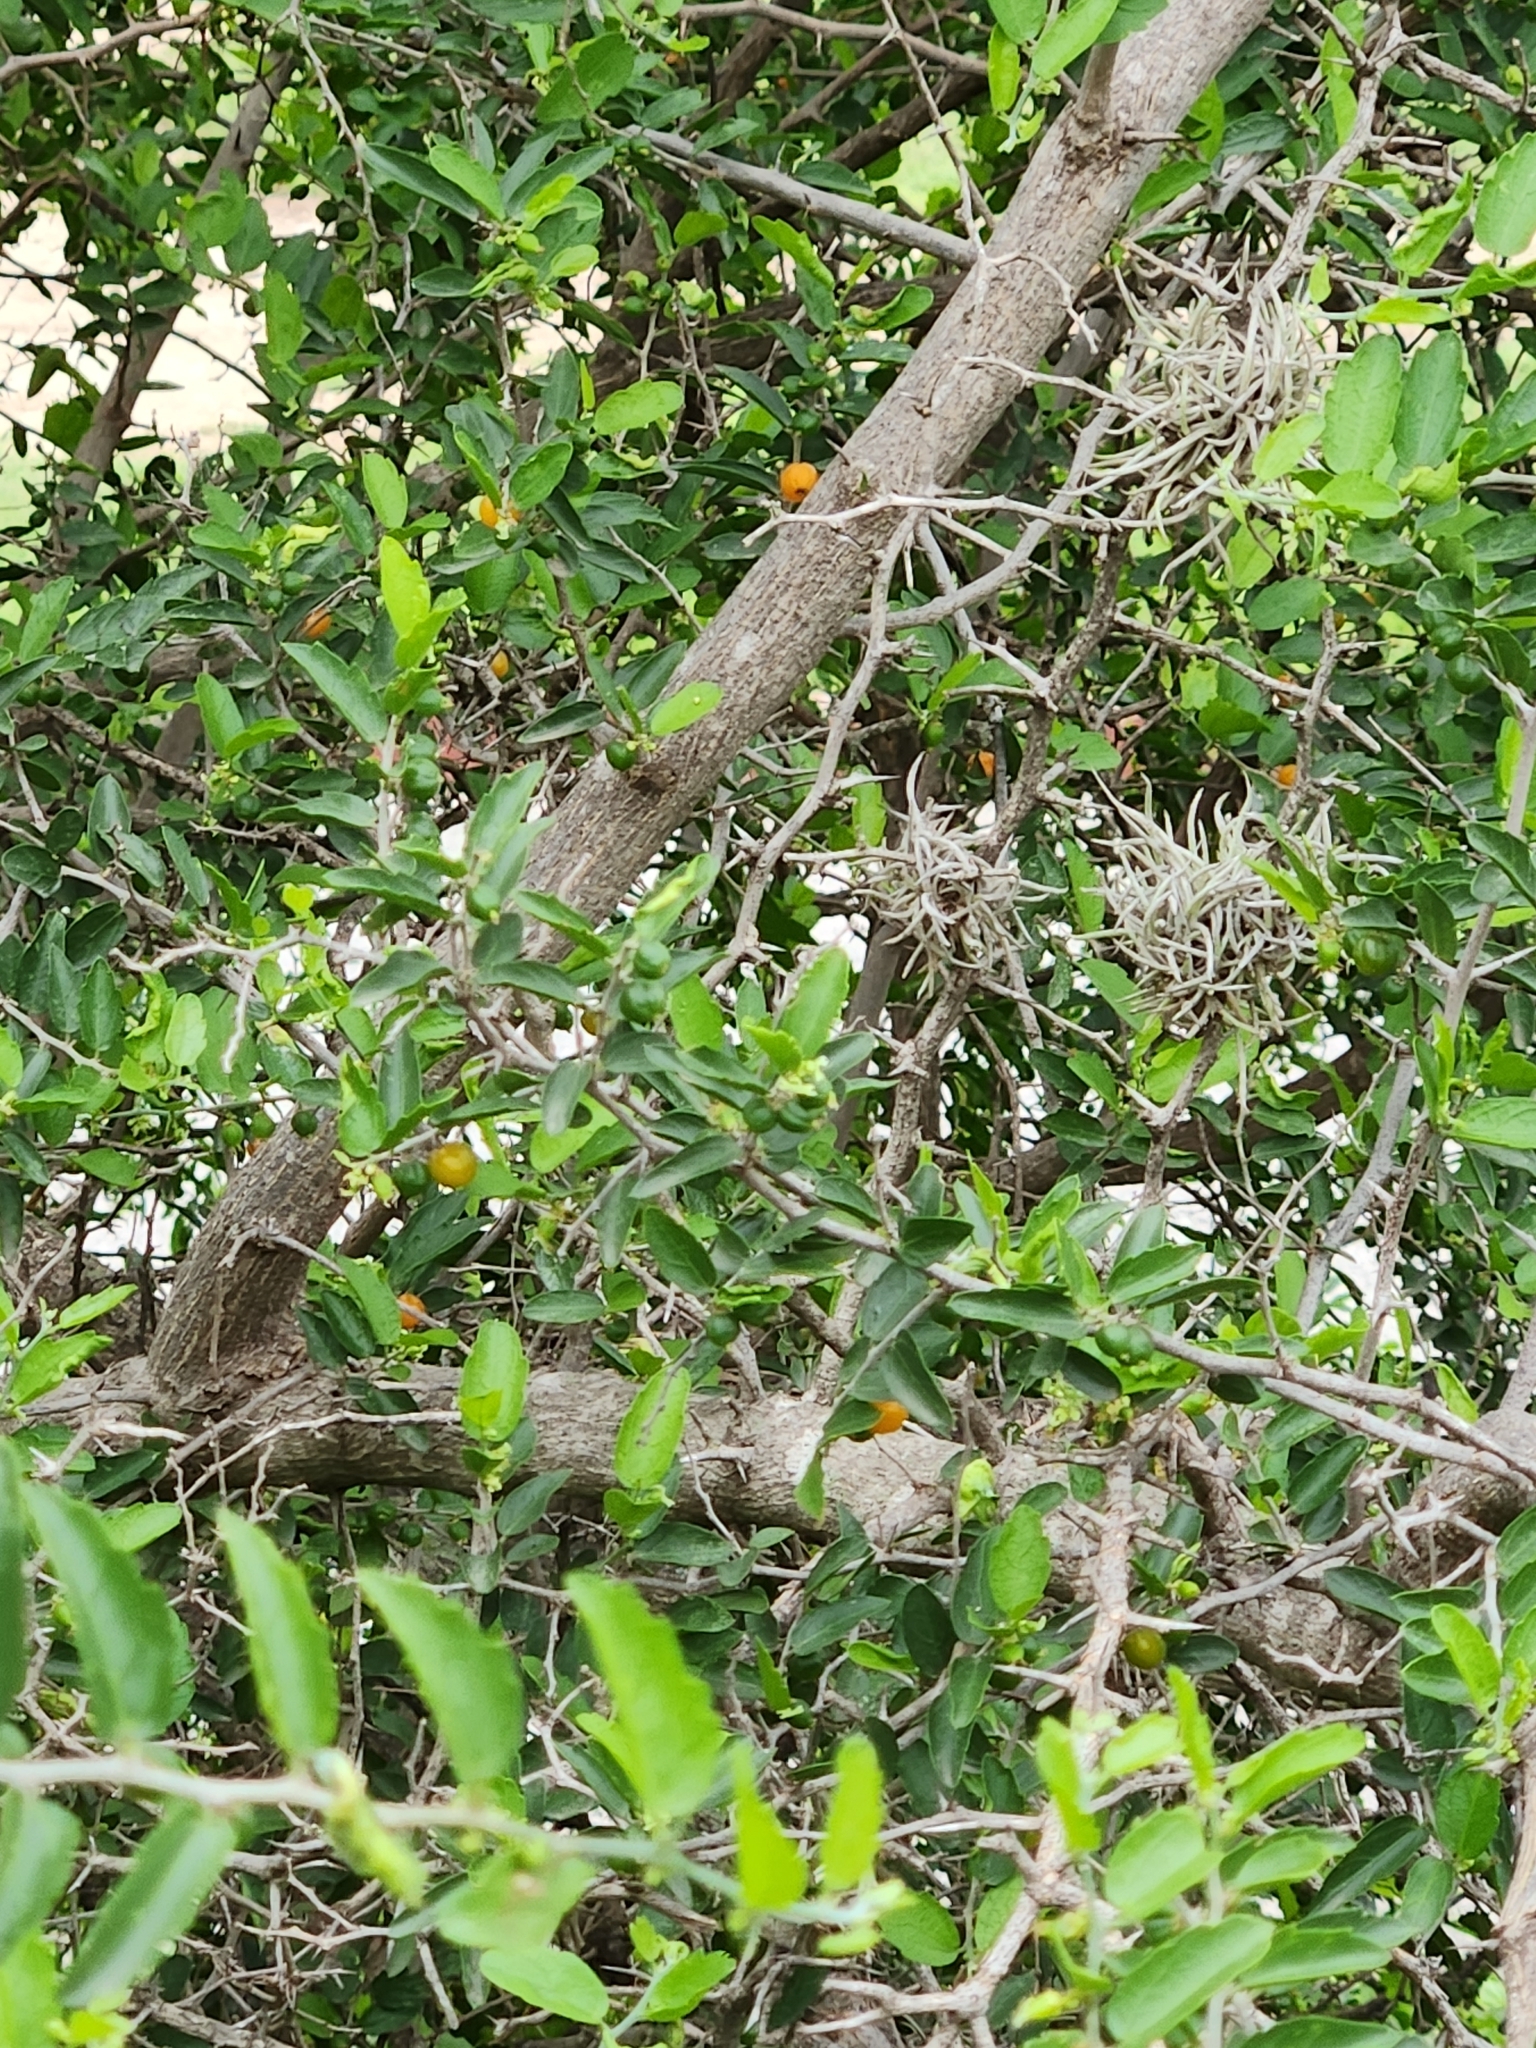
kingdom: Plantae
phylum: Tracheophyta
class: Magnoliopsida
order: Rosales
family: Cannabaceae
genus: Celtis
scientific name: Celtis pallida
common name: Desert hackberry
